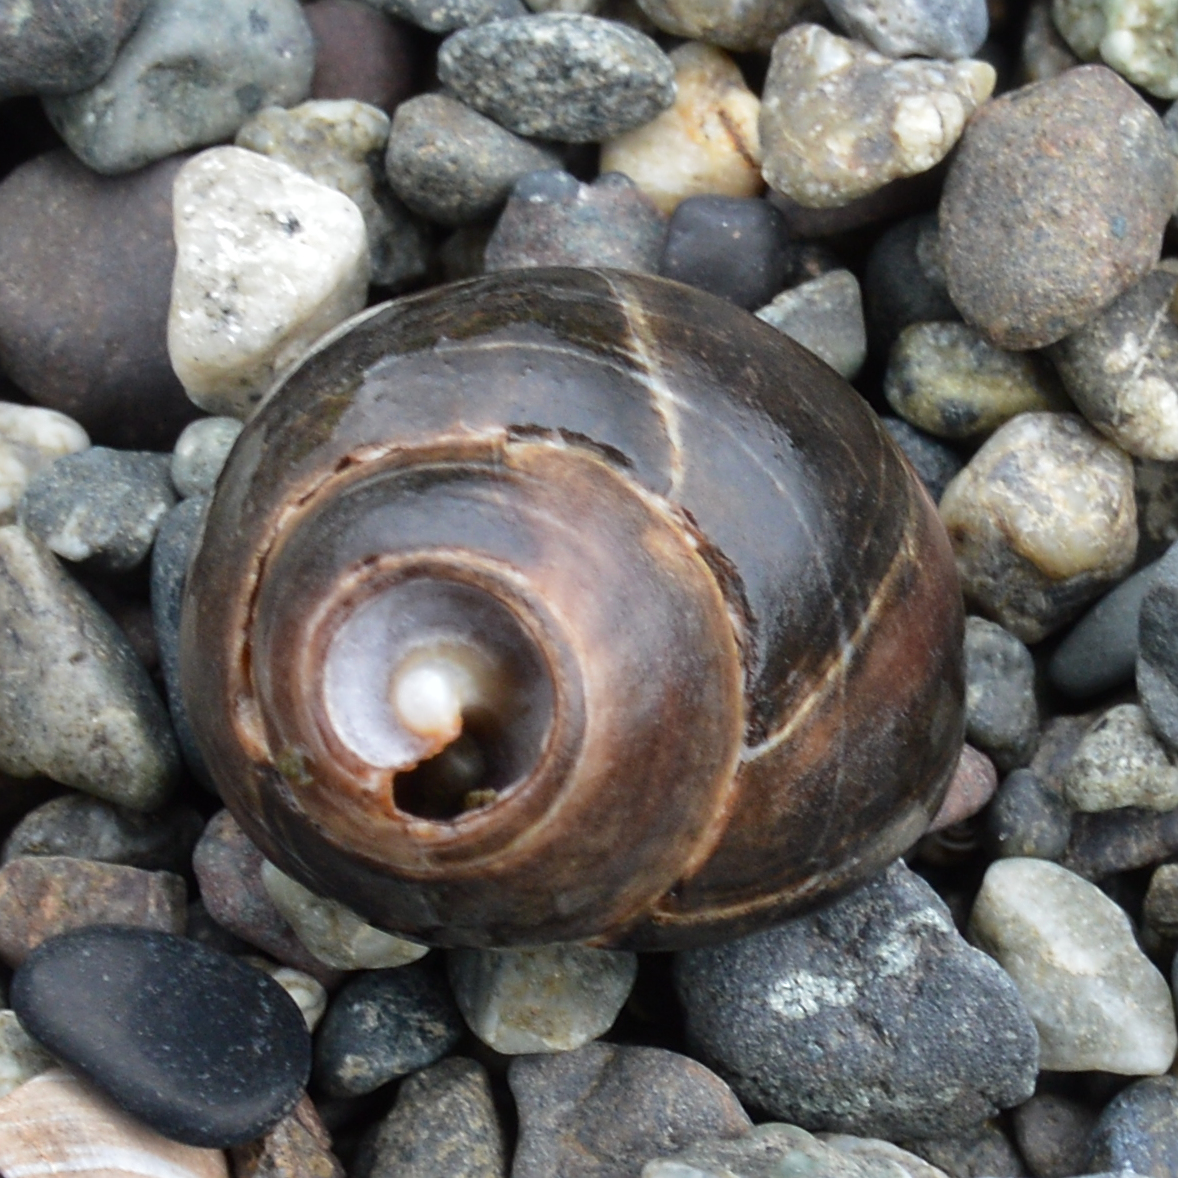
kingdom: Animalia
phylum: Mollusca
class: Gastropoda
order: Littorinimorpha
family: Littorinidae
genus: Littorina
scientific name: Littorina littorea
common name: Common periwinkle
